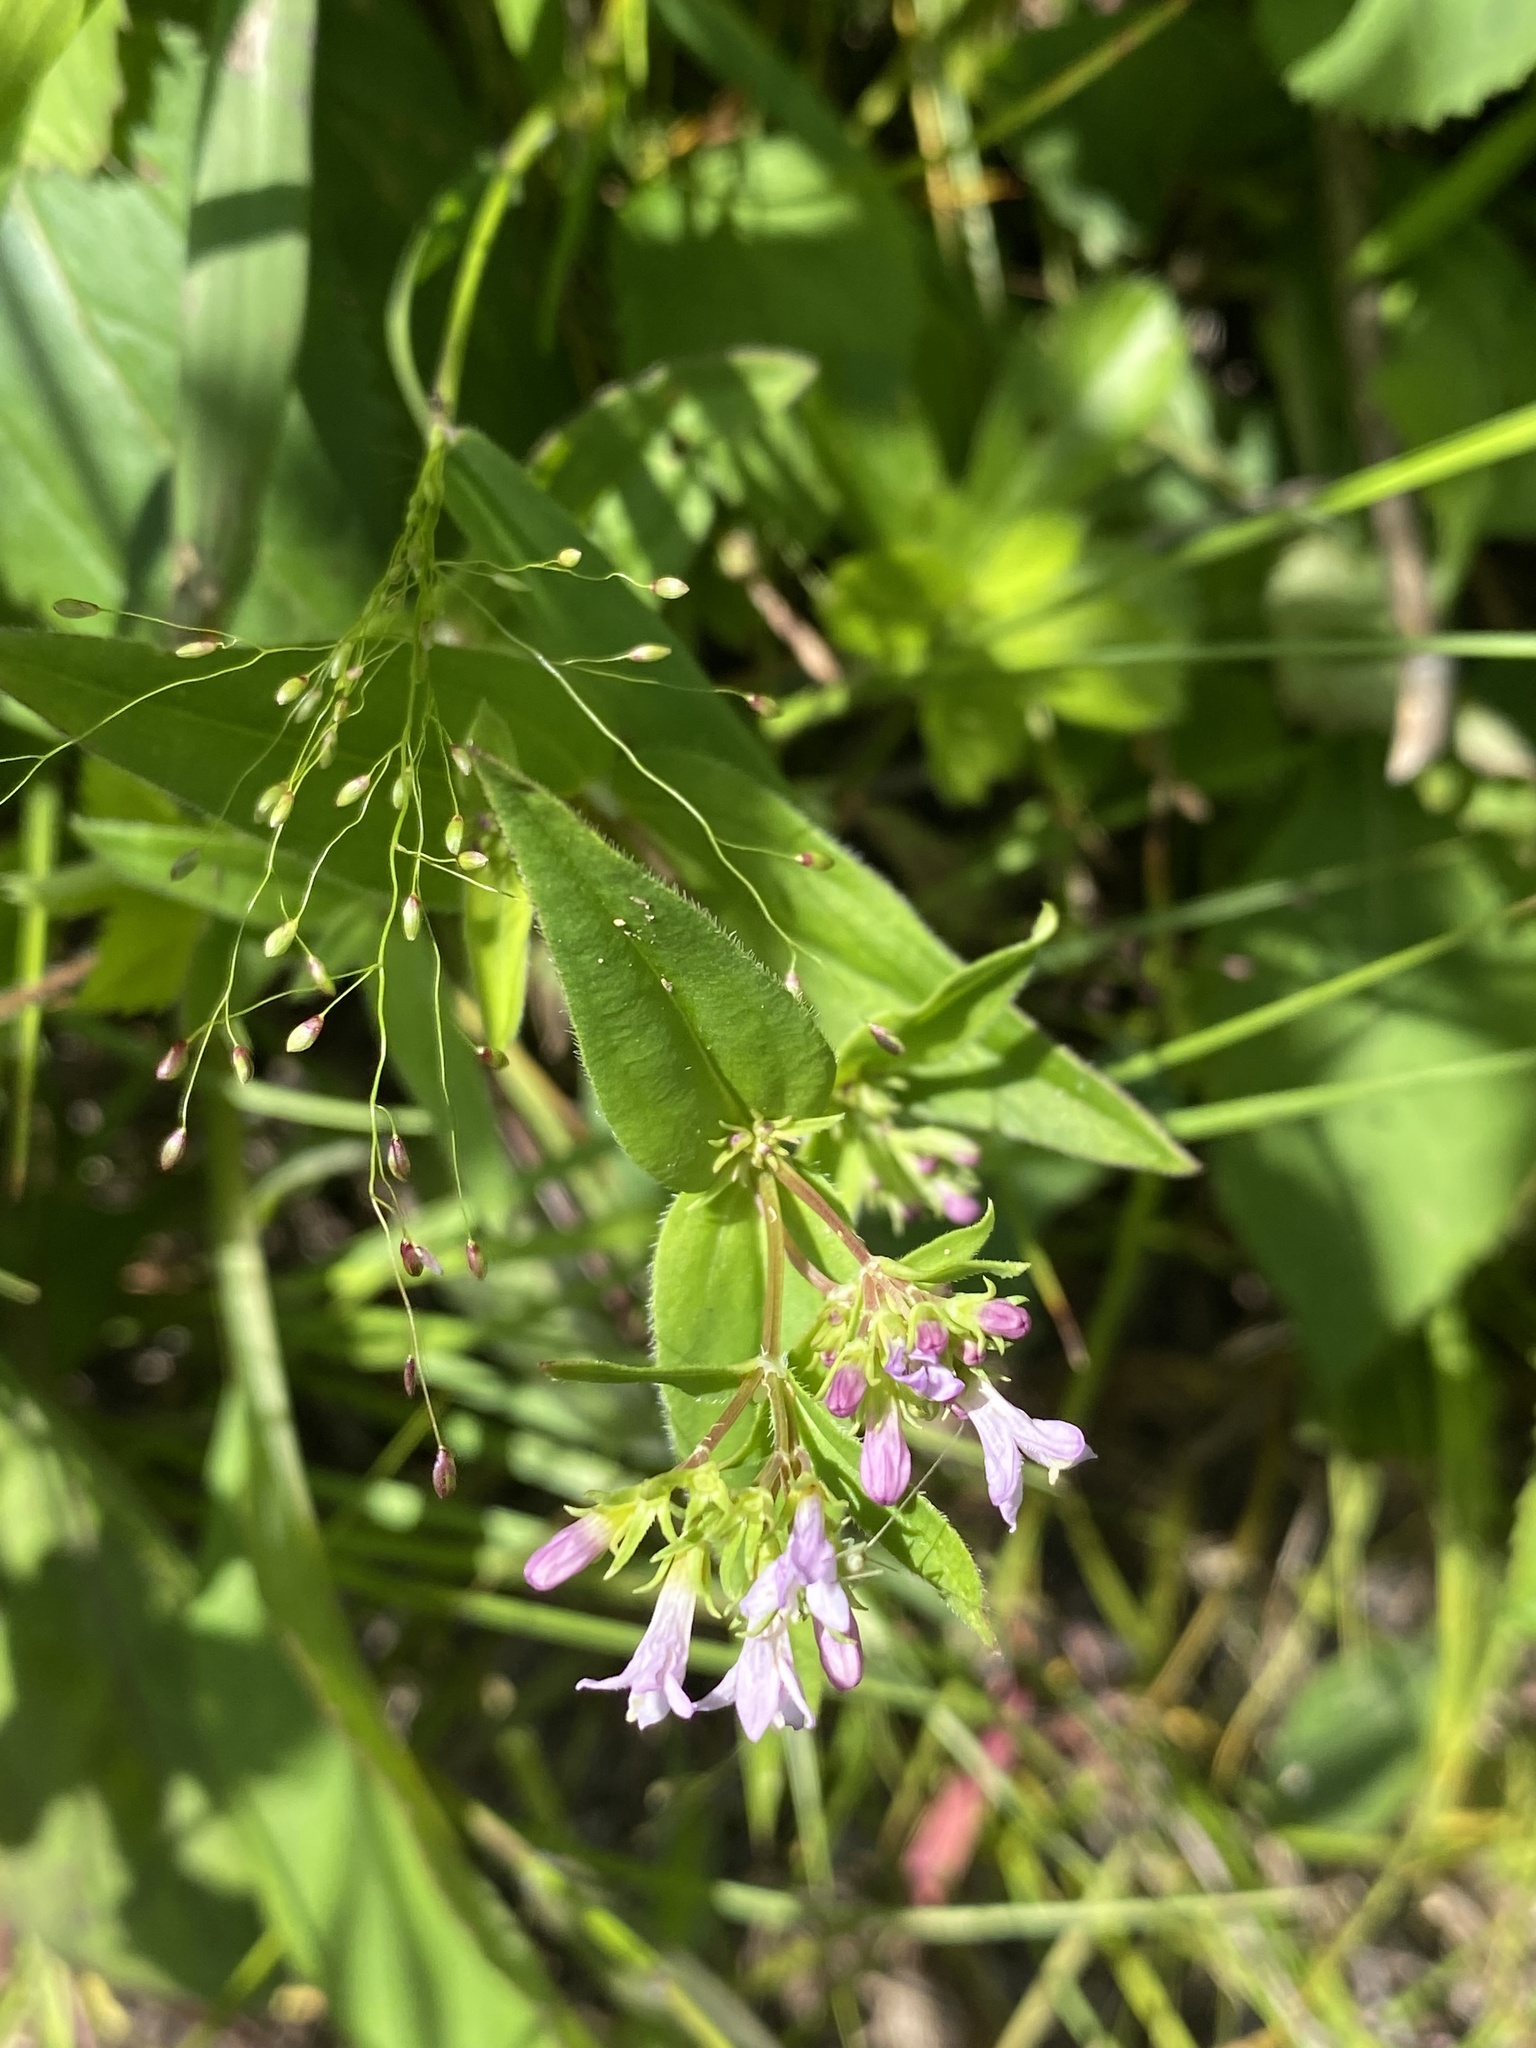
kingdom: Plantae
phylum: Tracheophyta
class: Magnoliopsida
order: Gentianales
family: Rubiaceae
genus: Houstonia
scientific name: Houstonia purpurea
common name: Summer bluet
